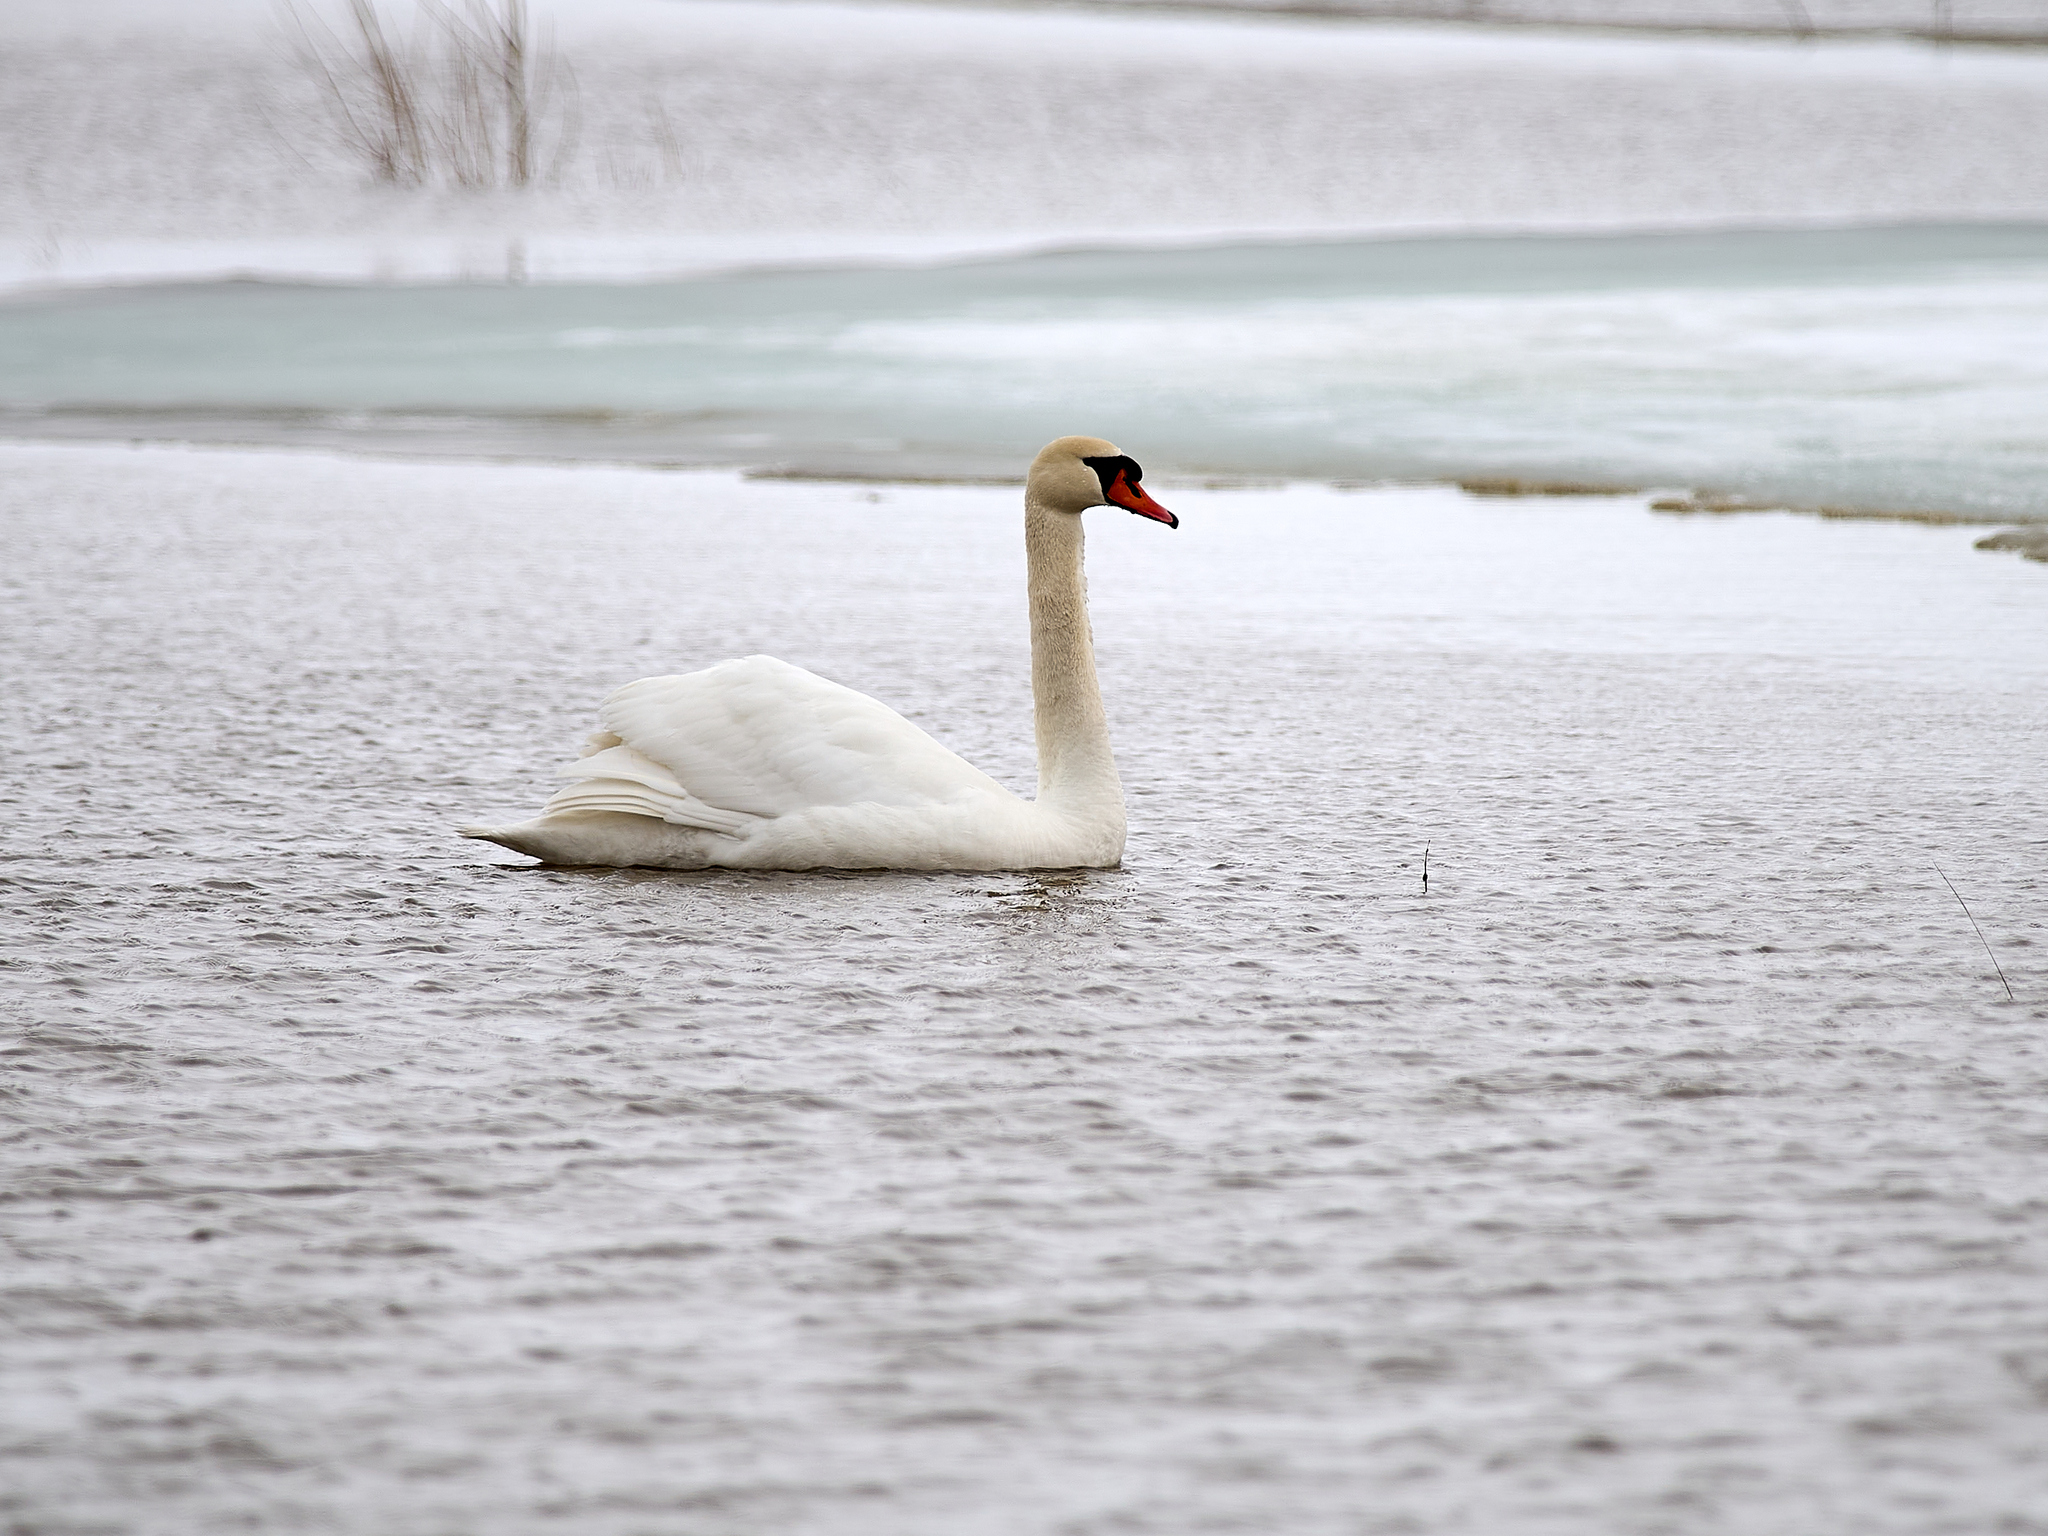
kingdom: Animalia
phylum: Chordata
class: Aves
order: Anseriformes
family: Anatidae
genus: Cygnus
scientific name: Cygnus olor
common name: Mute swan
